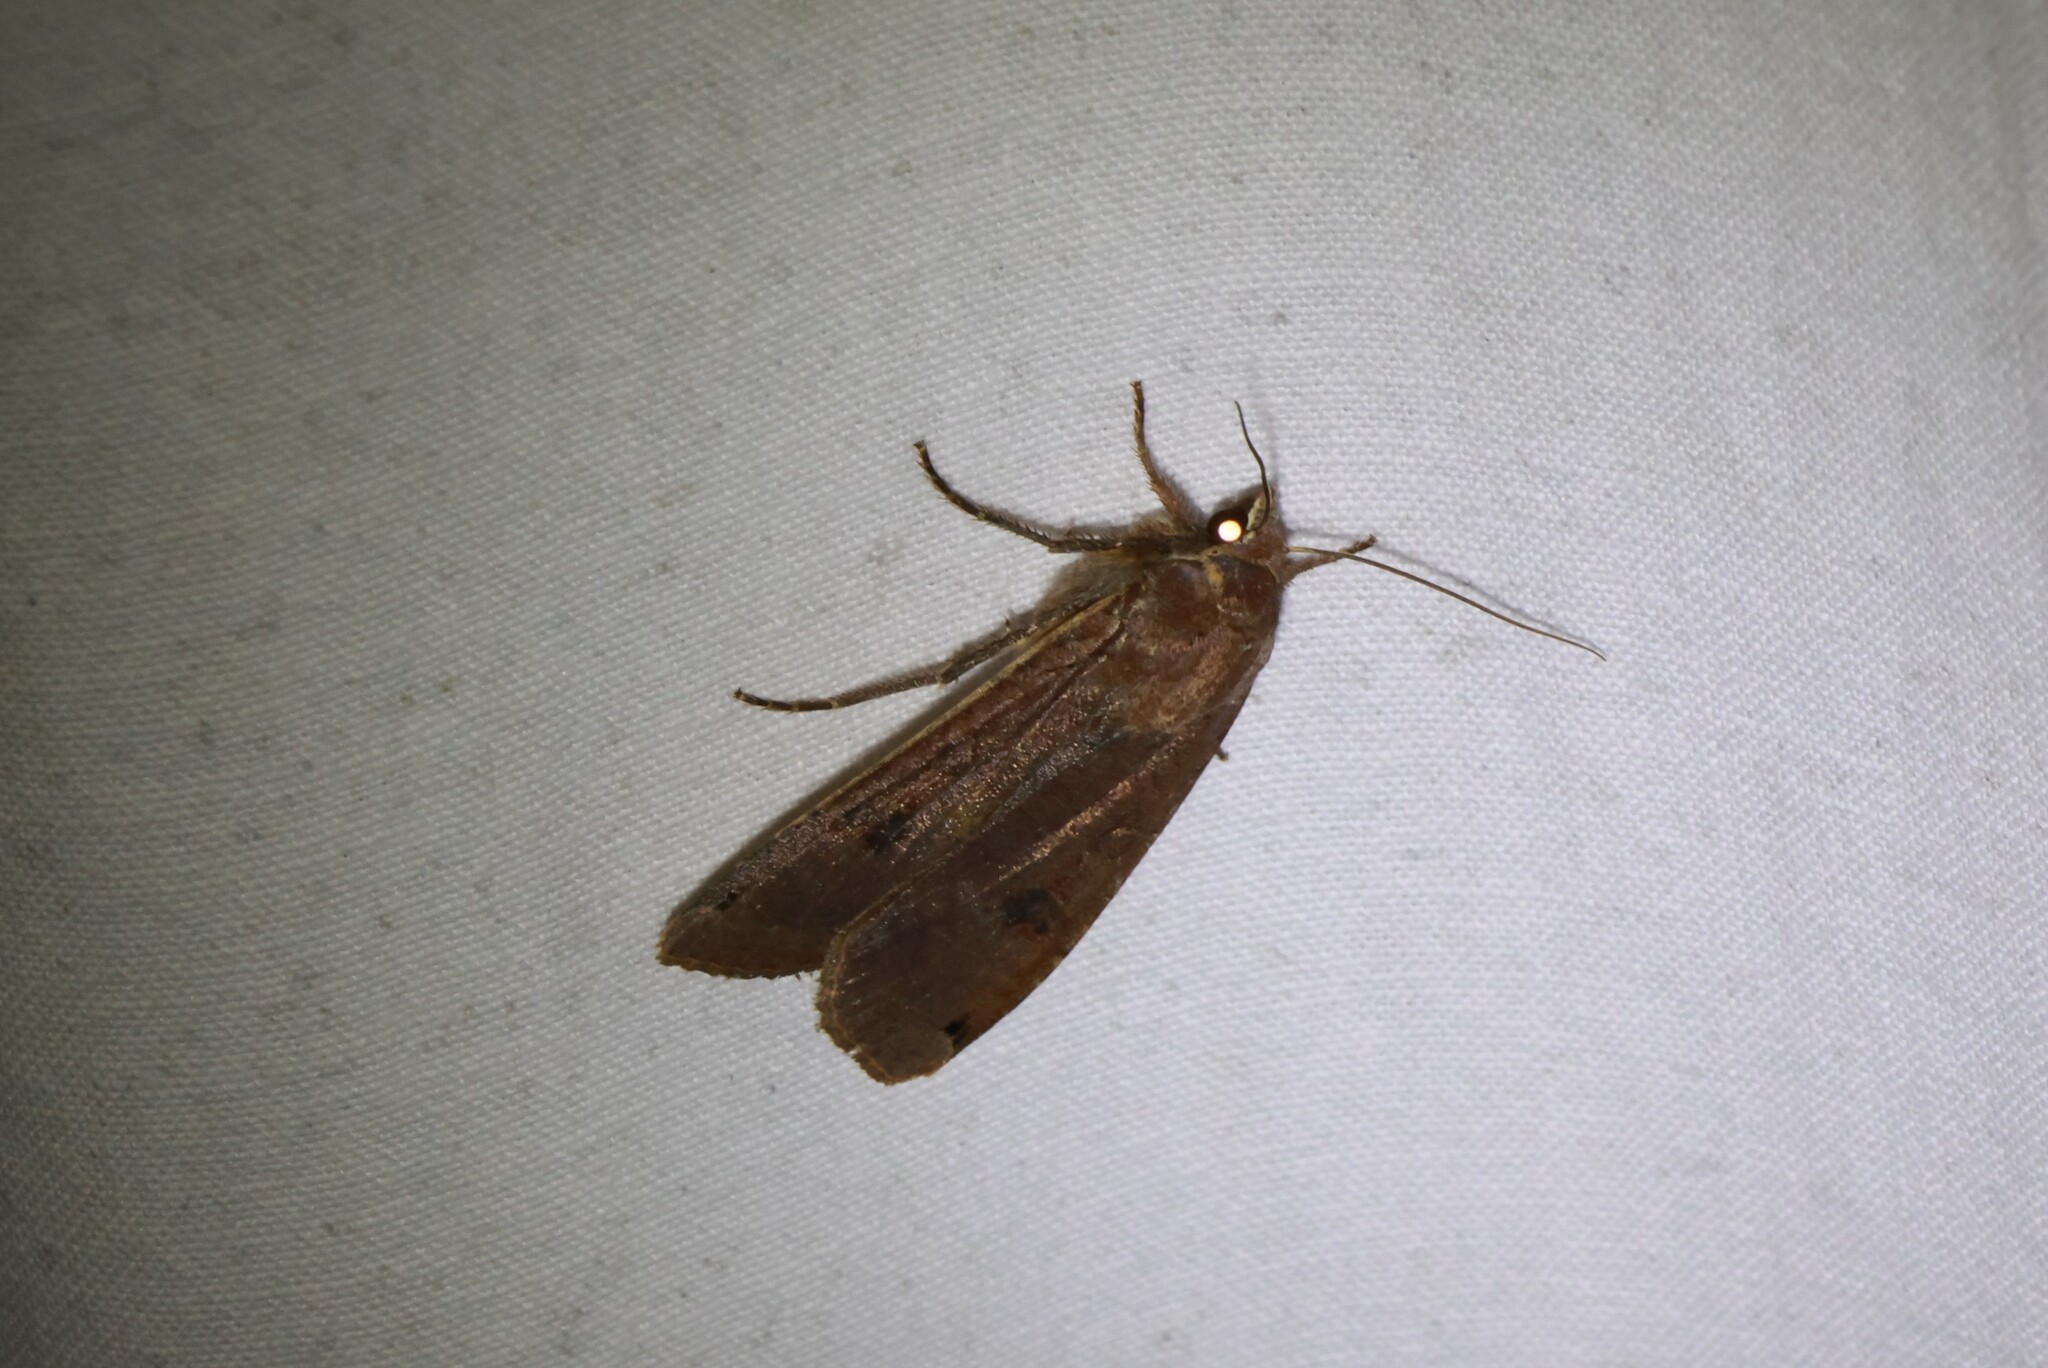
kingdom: Animalia
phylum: Arthropoda
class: Insecta
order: Lepidoptera
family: Noctuidae
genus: Noctua
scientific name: Noctua pronuba
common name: Large yellow underwing
